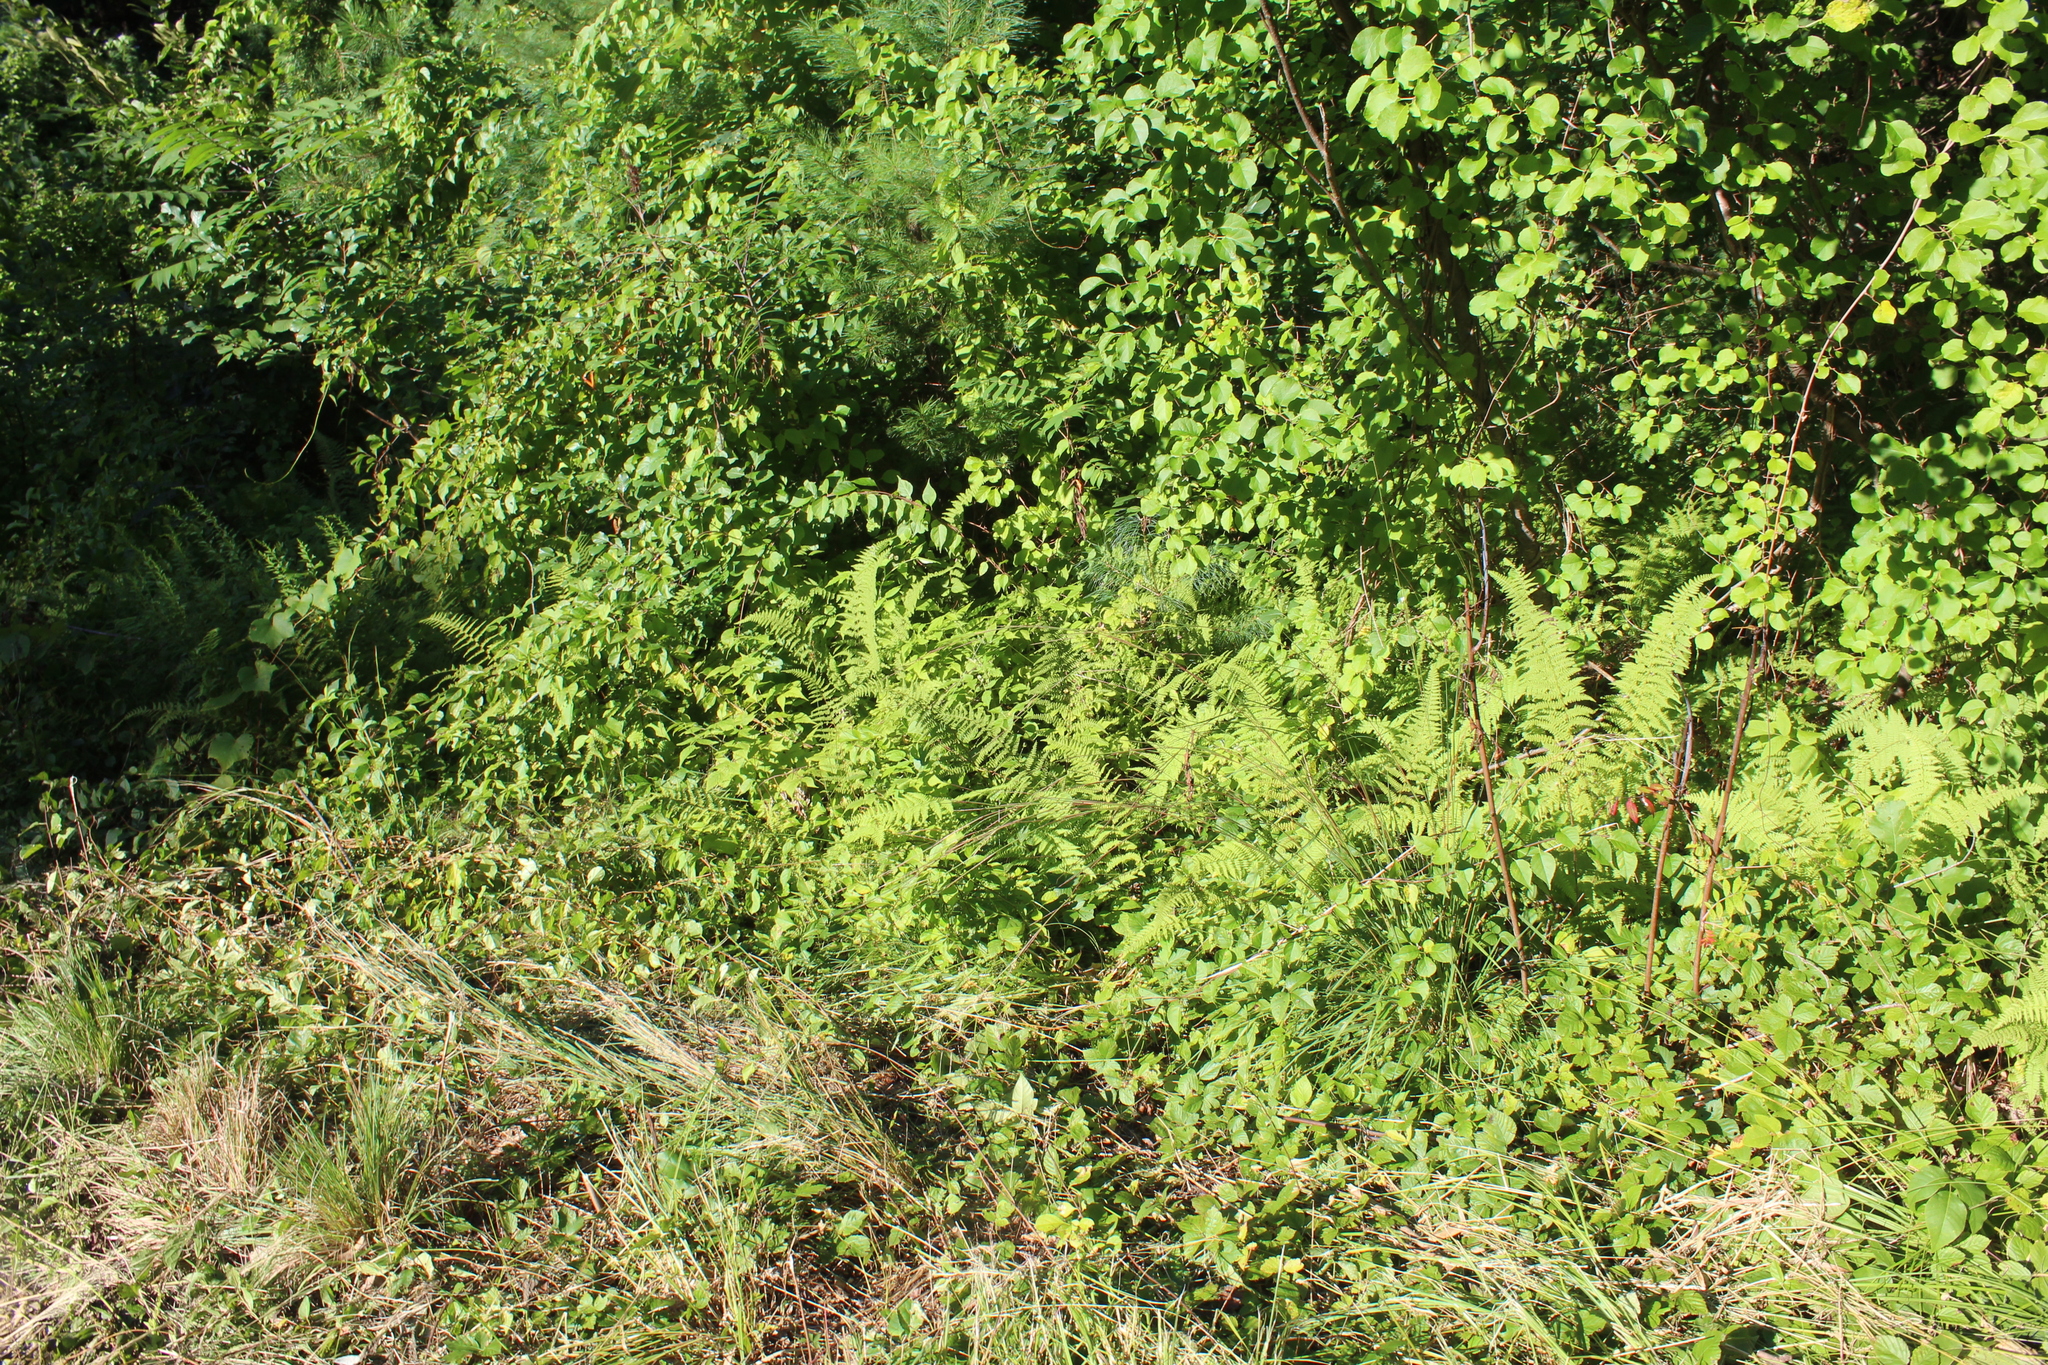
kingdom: Plantae
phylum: Tracheophyta
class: Polypodiopsida
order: Polypodiales
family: Dennstaedtiaceae
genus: Sitobolium
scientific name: Sitobolium punctilobum
